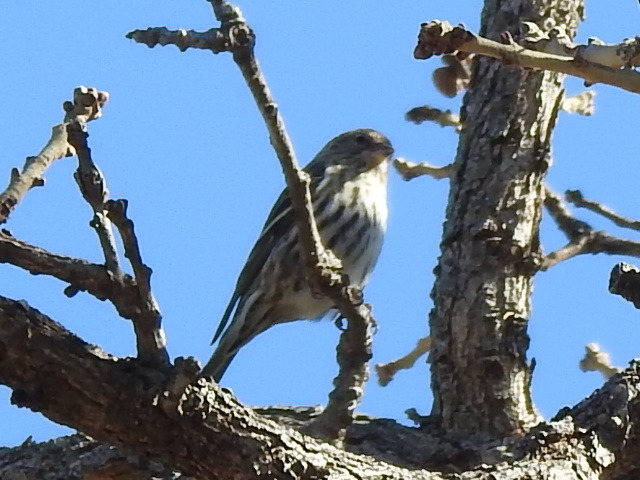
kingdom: Animalia
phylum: Chordata
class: Aves
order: Passeriformes
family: Fringillidae
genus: Spinus
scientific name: Spinus pinus
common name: Pine siskin
